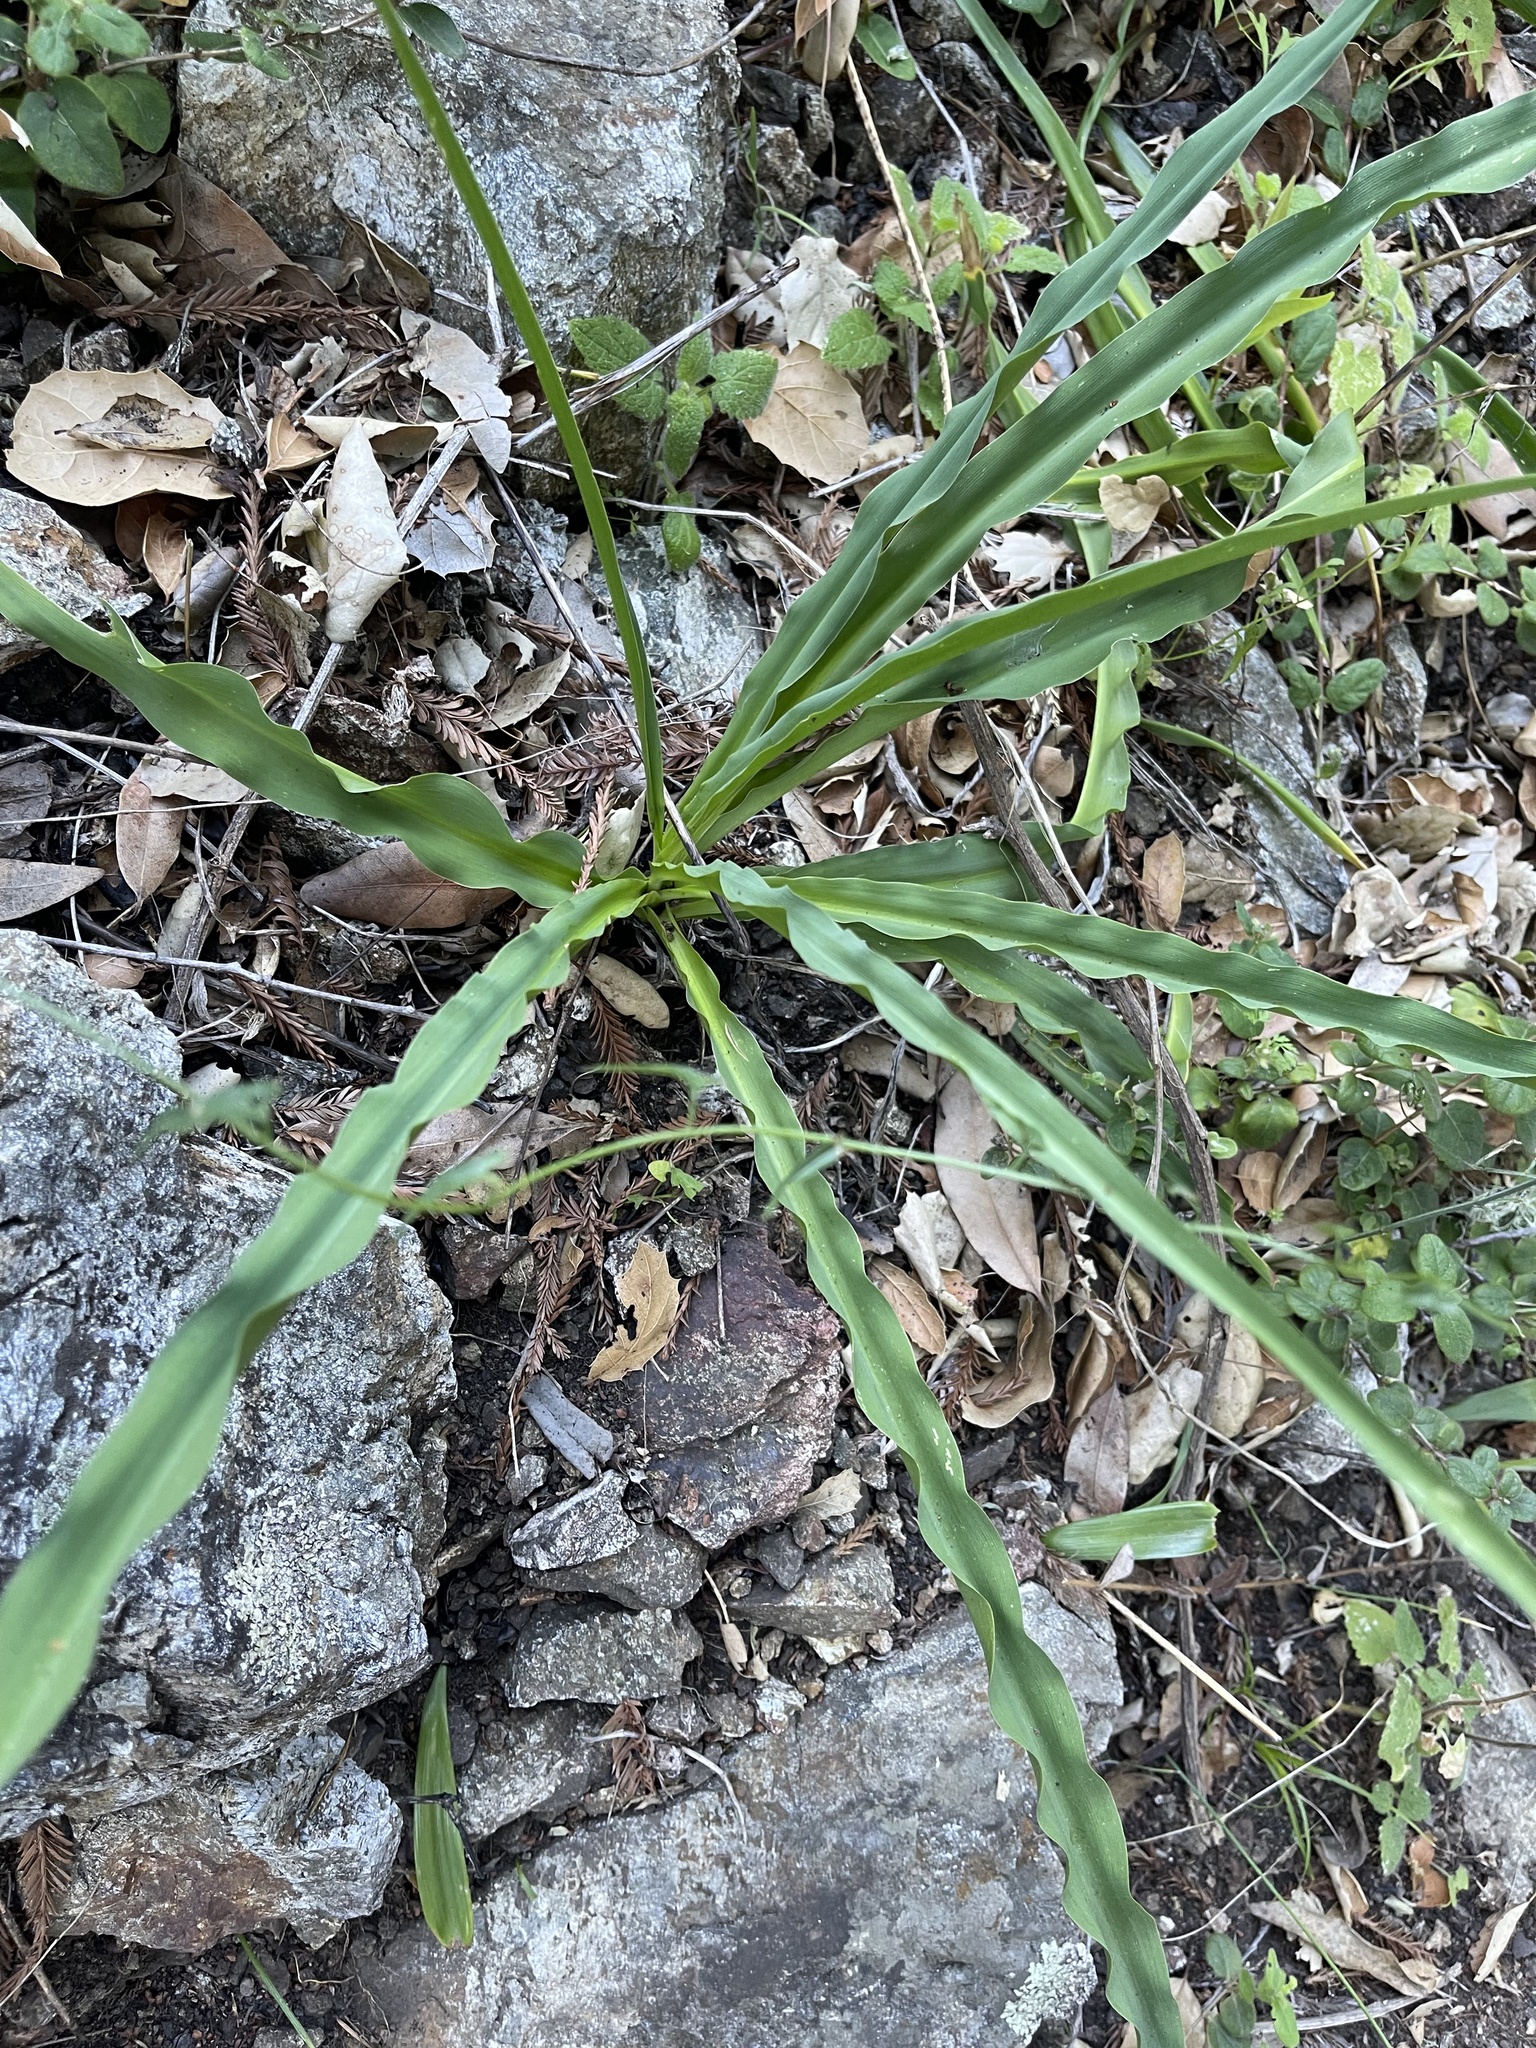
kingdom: Plantae
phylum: Tracheophyta
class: Liliopsida
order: Asparagales
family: Asparagaceae
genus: Chlorogalum
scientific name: Chlorogalum pomeridianum
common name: Amole
